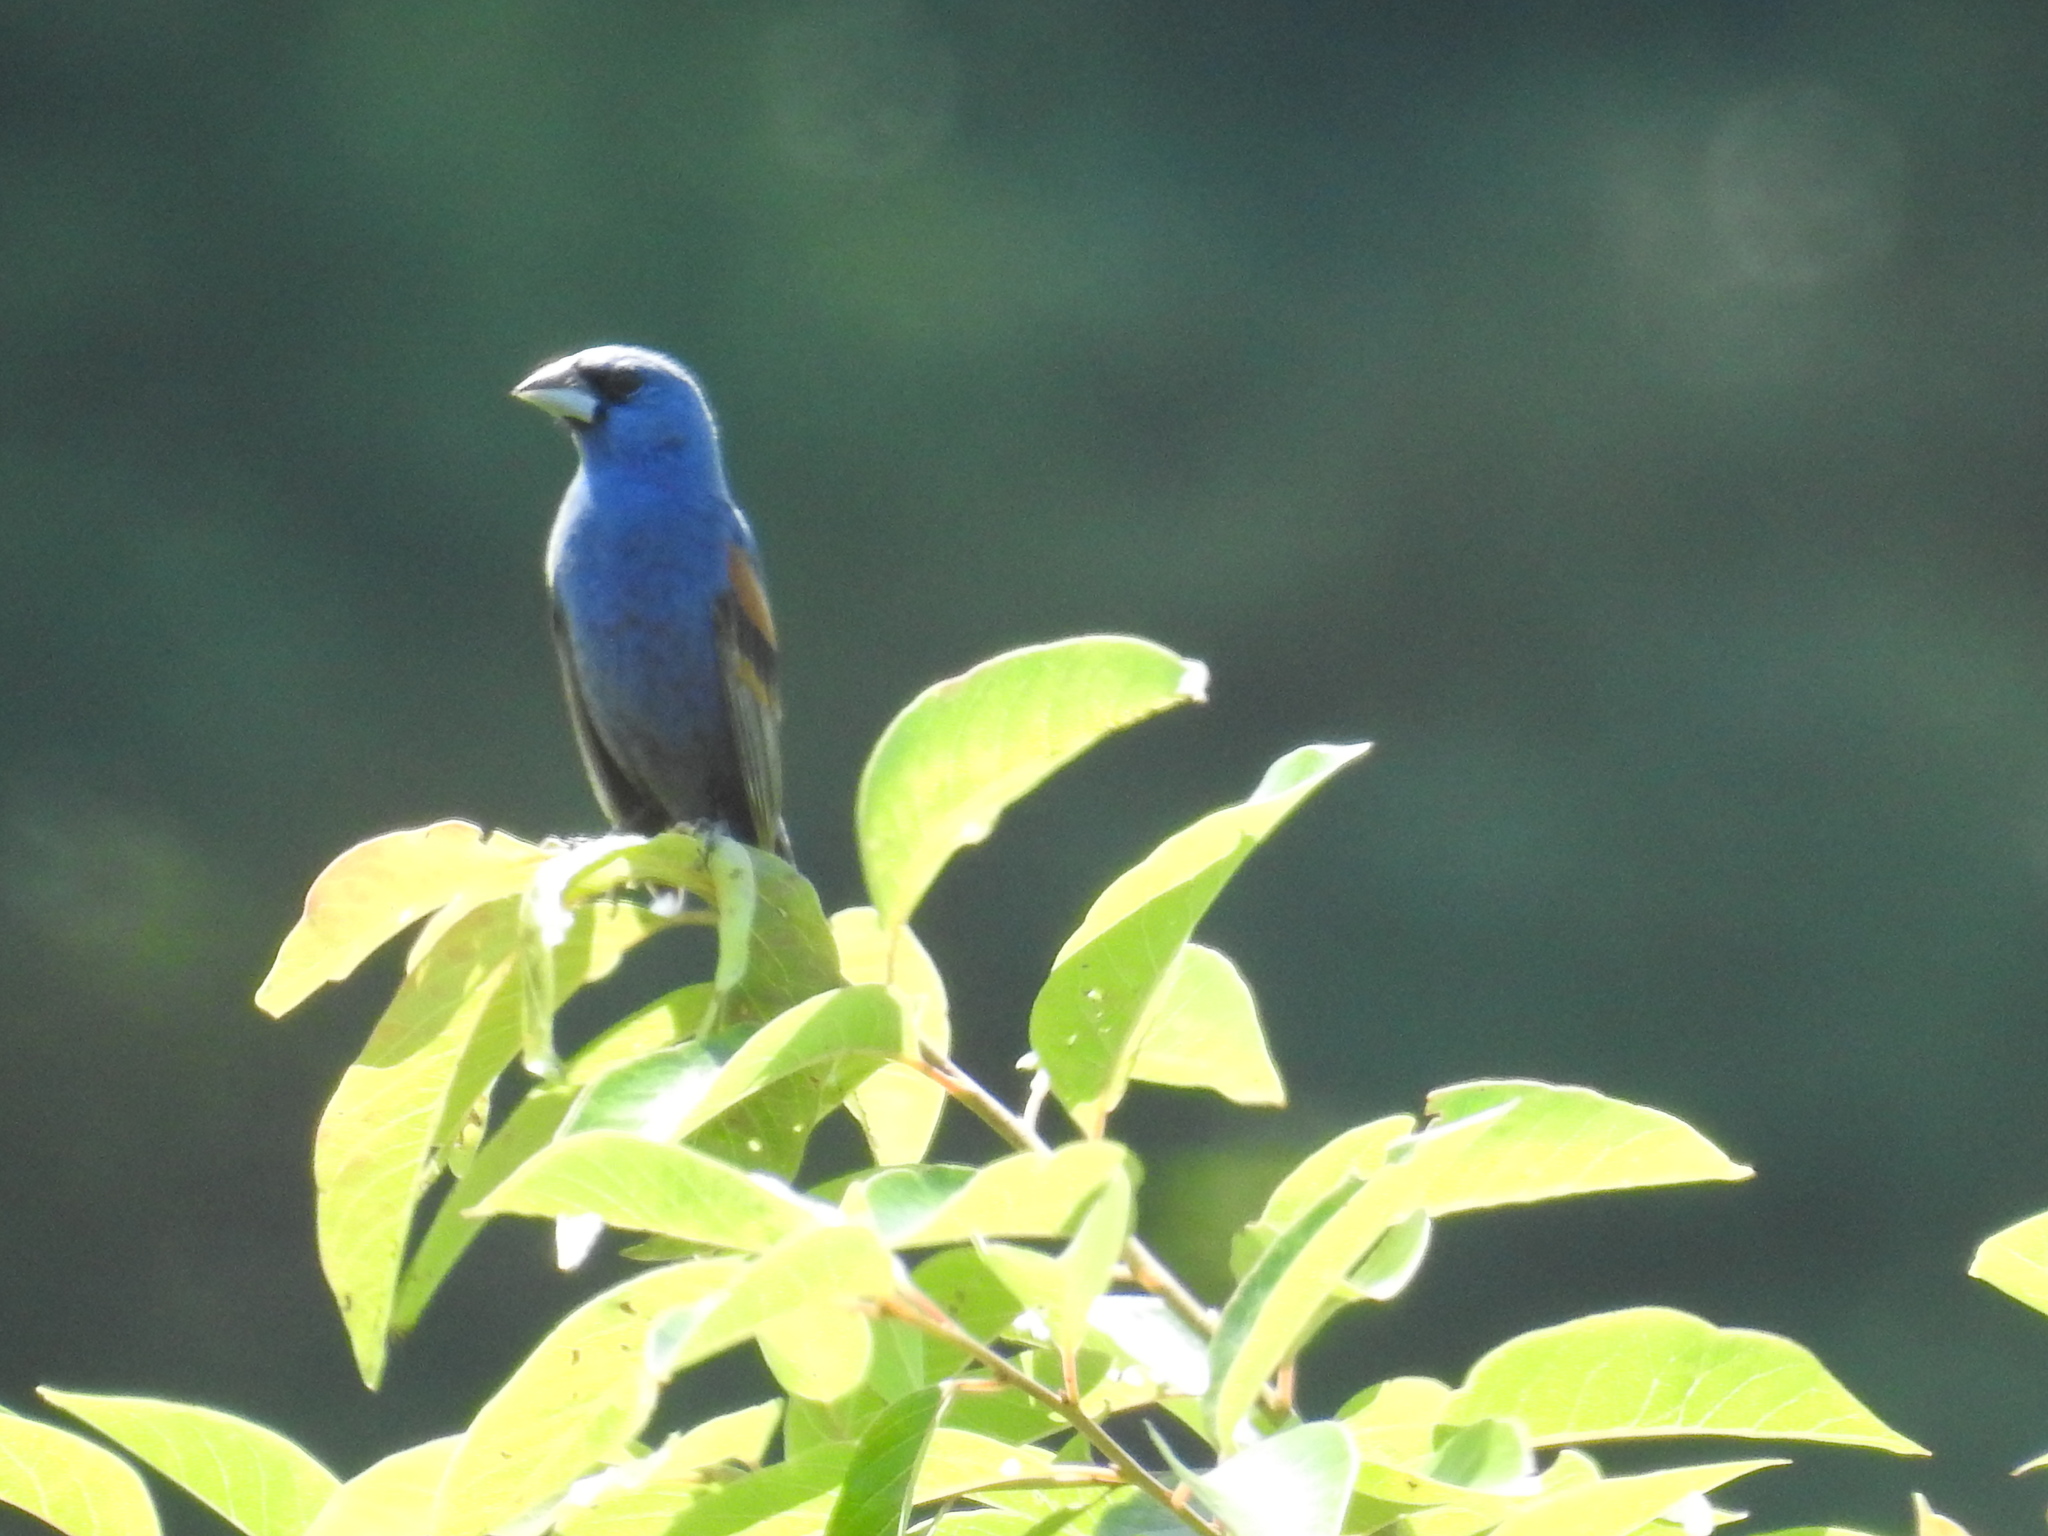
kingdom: Animalia
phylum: Chordata
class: Aves
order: Passeriformes
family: Cardinalidae
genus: Passerina
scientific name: Passerina caerulea
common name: Blue grosbeak
